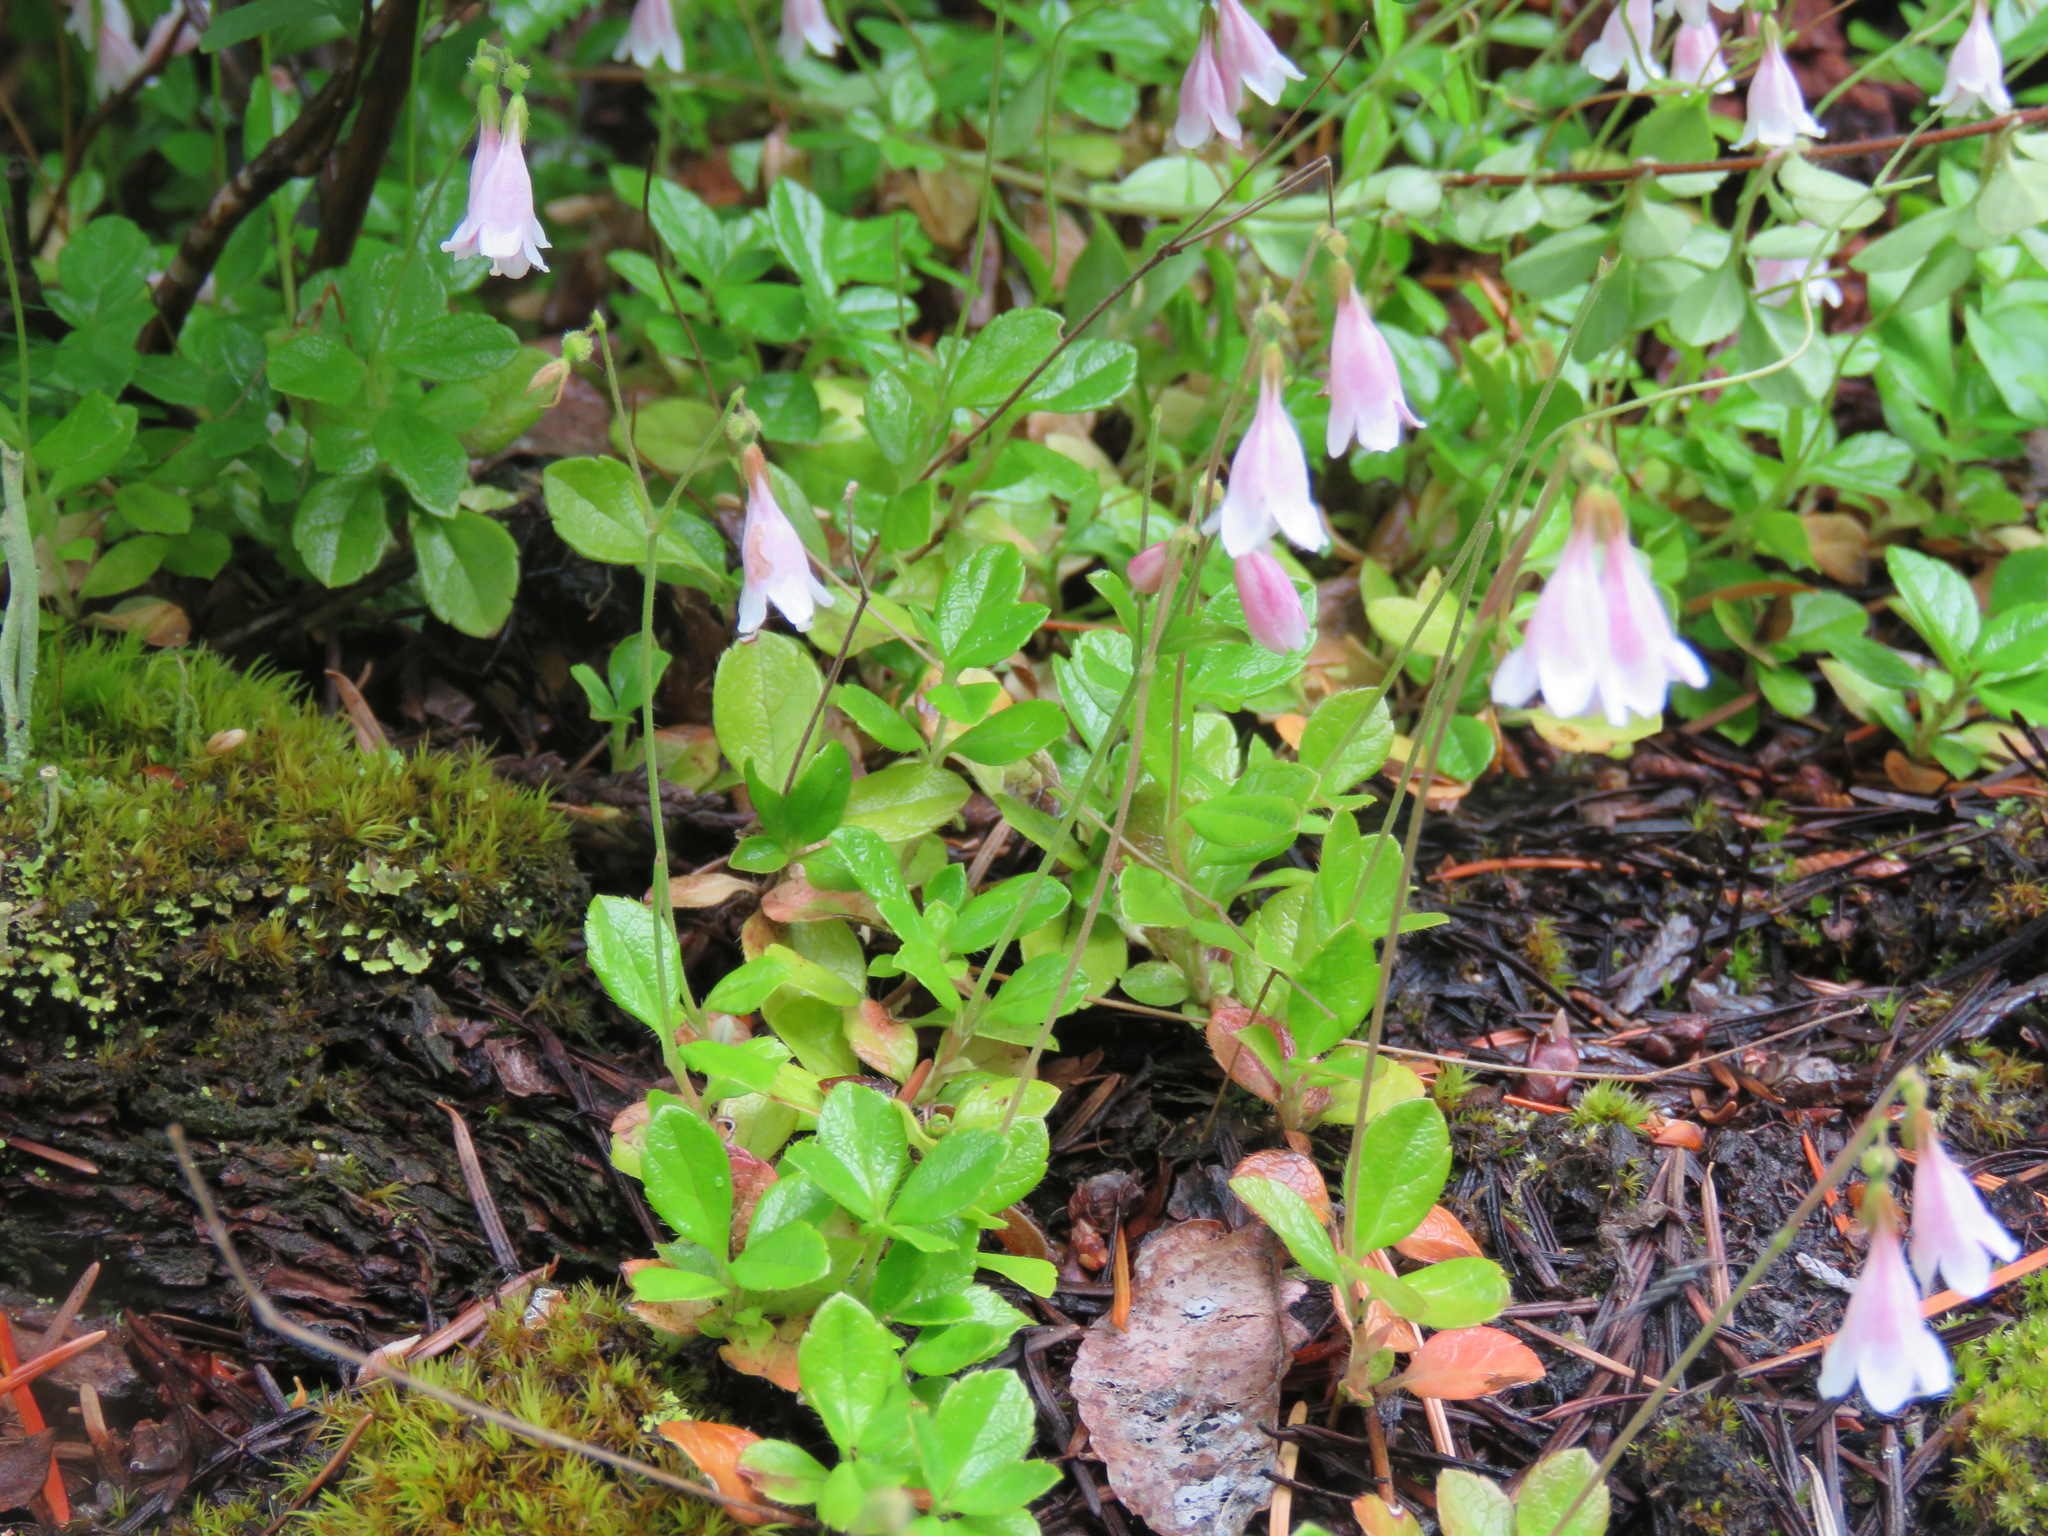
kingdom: Plantae
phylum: Tracheophyta
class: Magnoliopsida
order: Dipsacales
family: Caprifoliaceae
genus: Linnaea
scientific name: Linnaea borealis
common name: Twinflower
